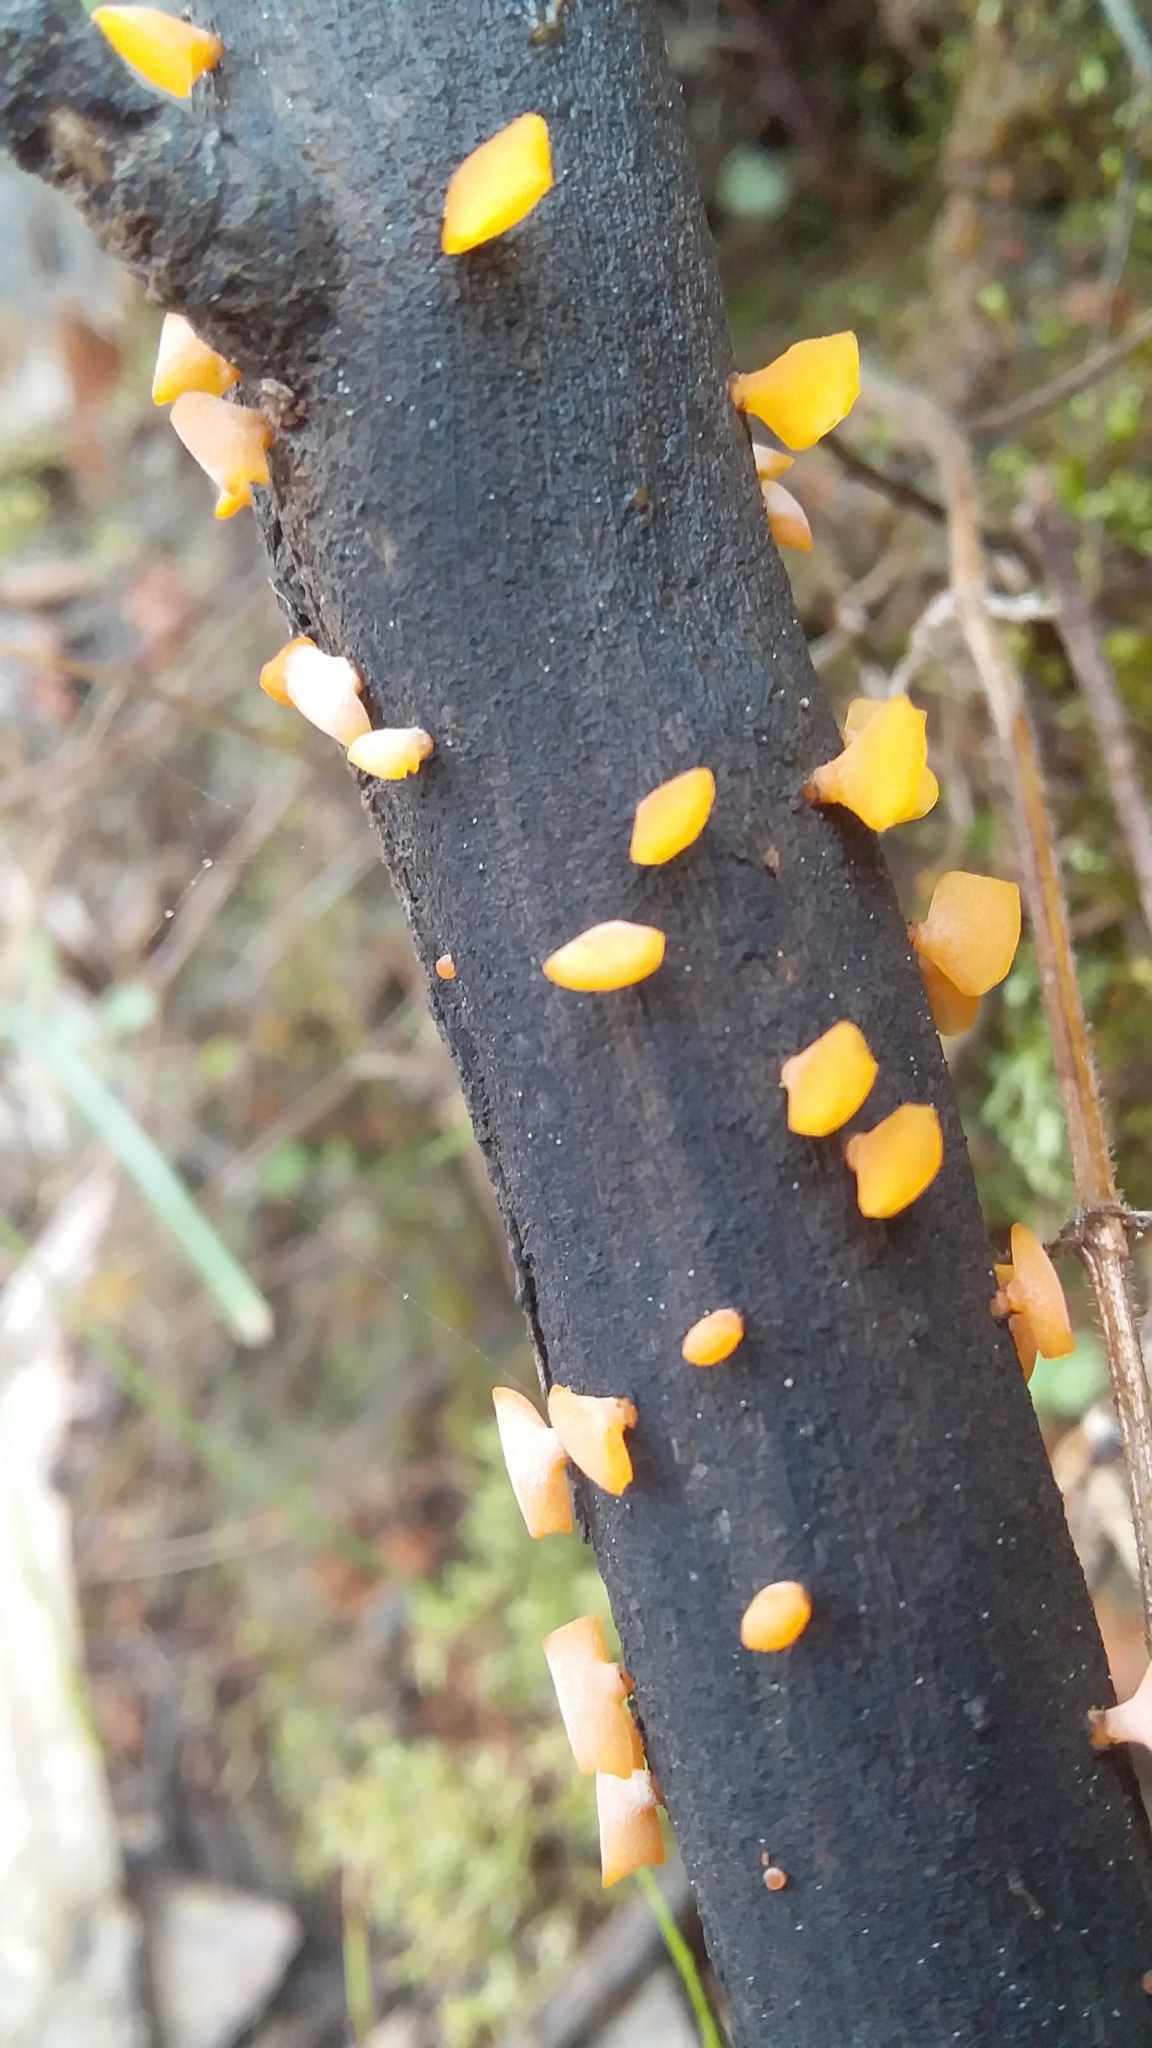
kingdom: Fungi
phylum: Basidiomycota
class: Dacrymycetes
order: Dacrymycetales
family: Dacrymycetaceae
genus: Heterotextus
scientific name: Heterotextus peziziformis
